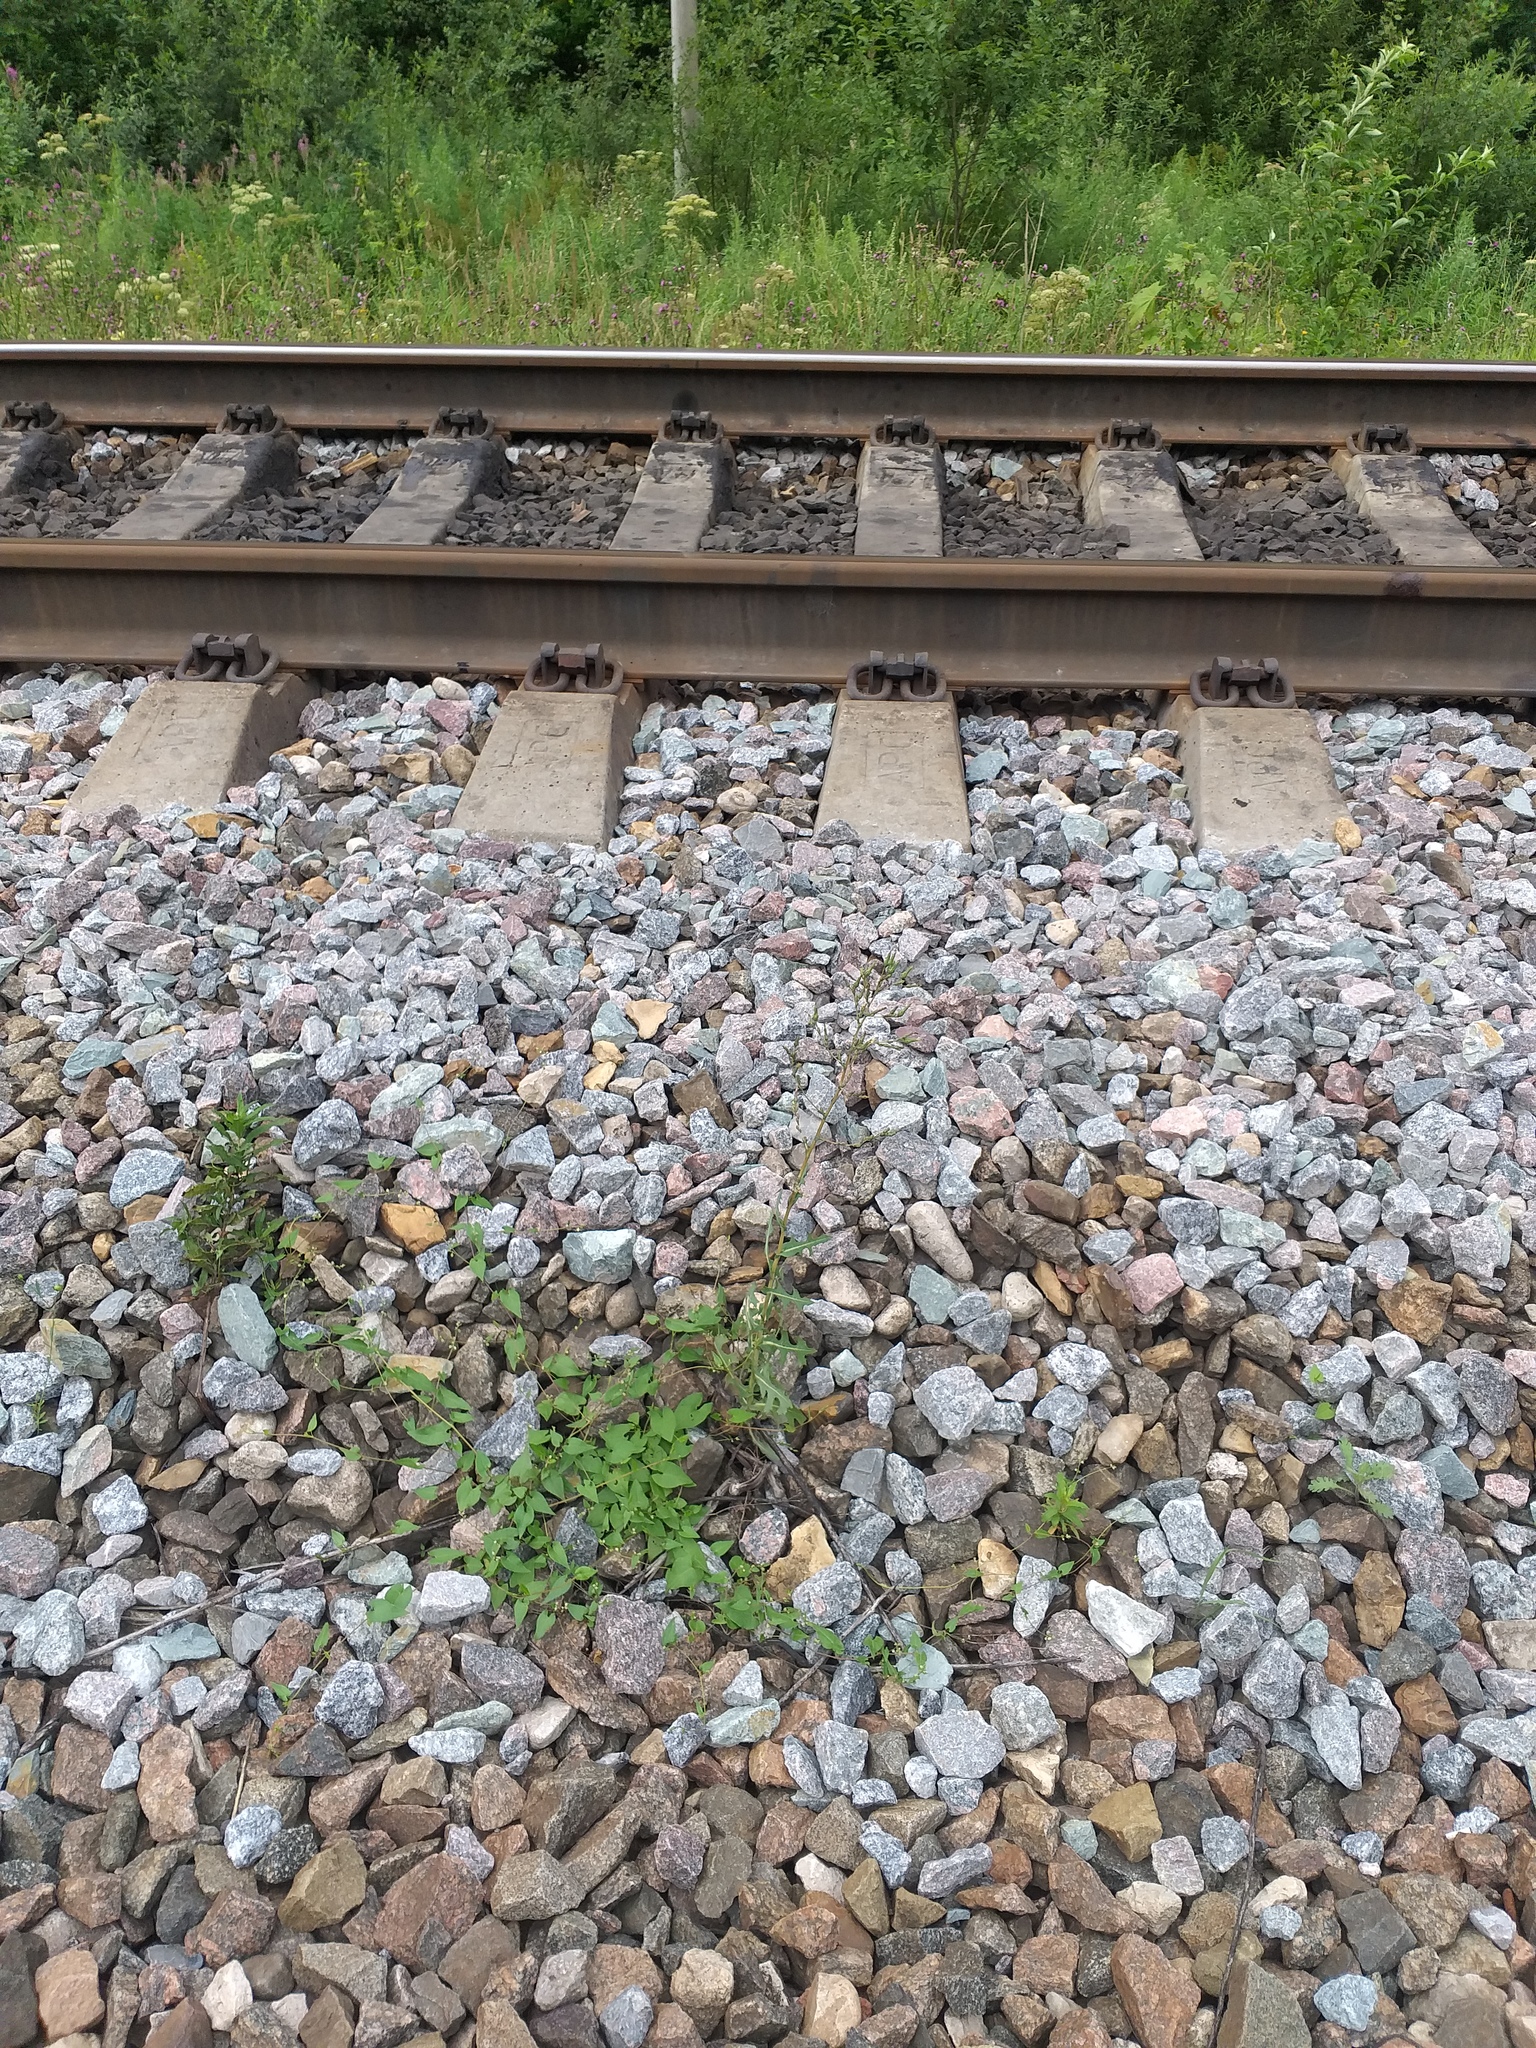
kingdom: Plantae
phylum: Tracheophyta
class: Magnoliopsida
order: Asterales
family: Asteraceae
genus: Lactuca
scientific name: Lactuca serriola
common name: Prickly lettuce
